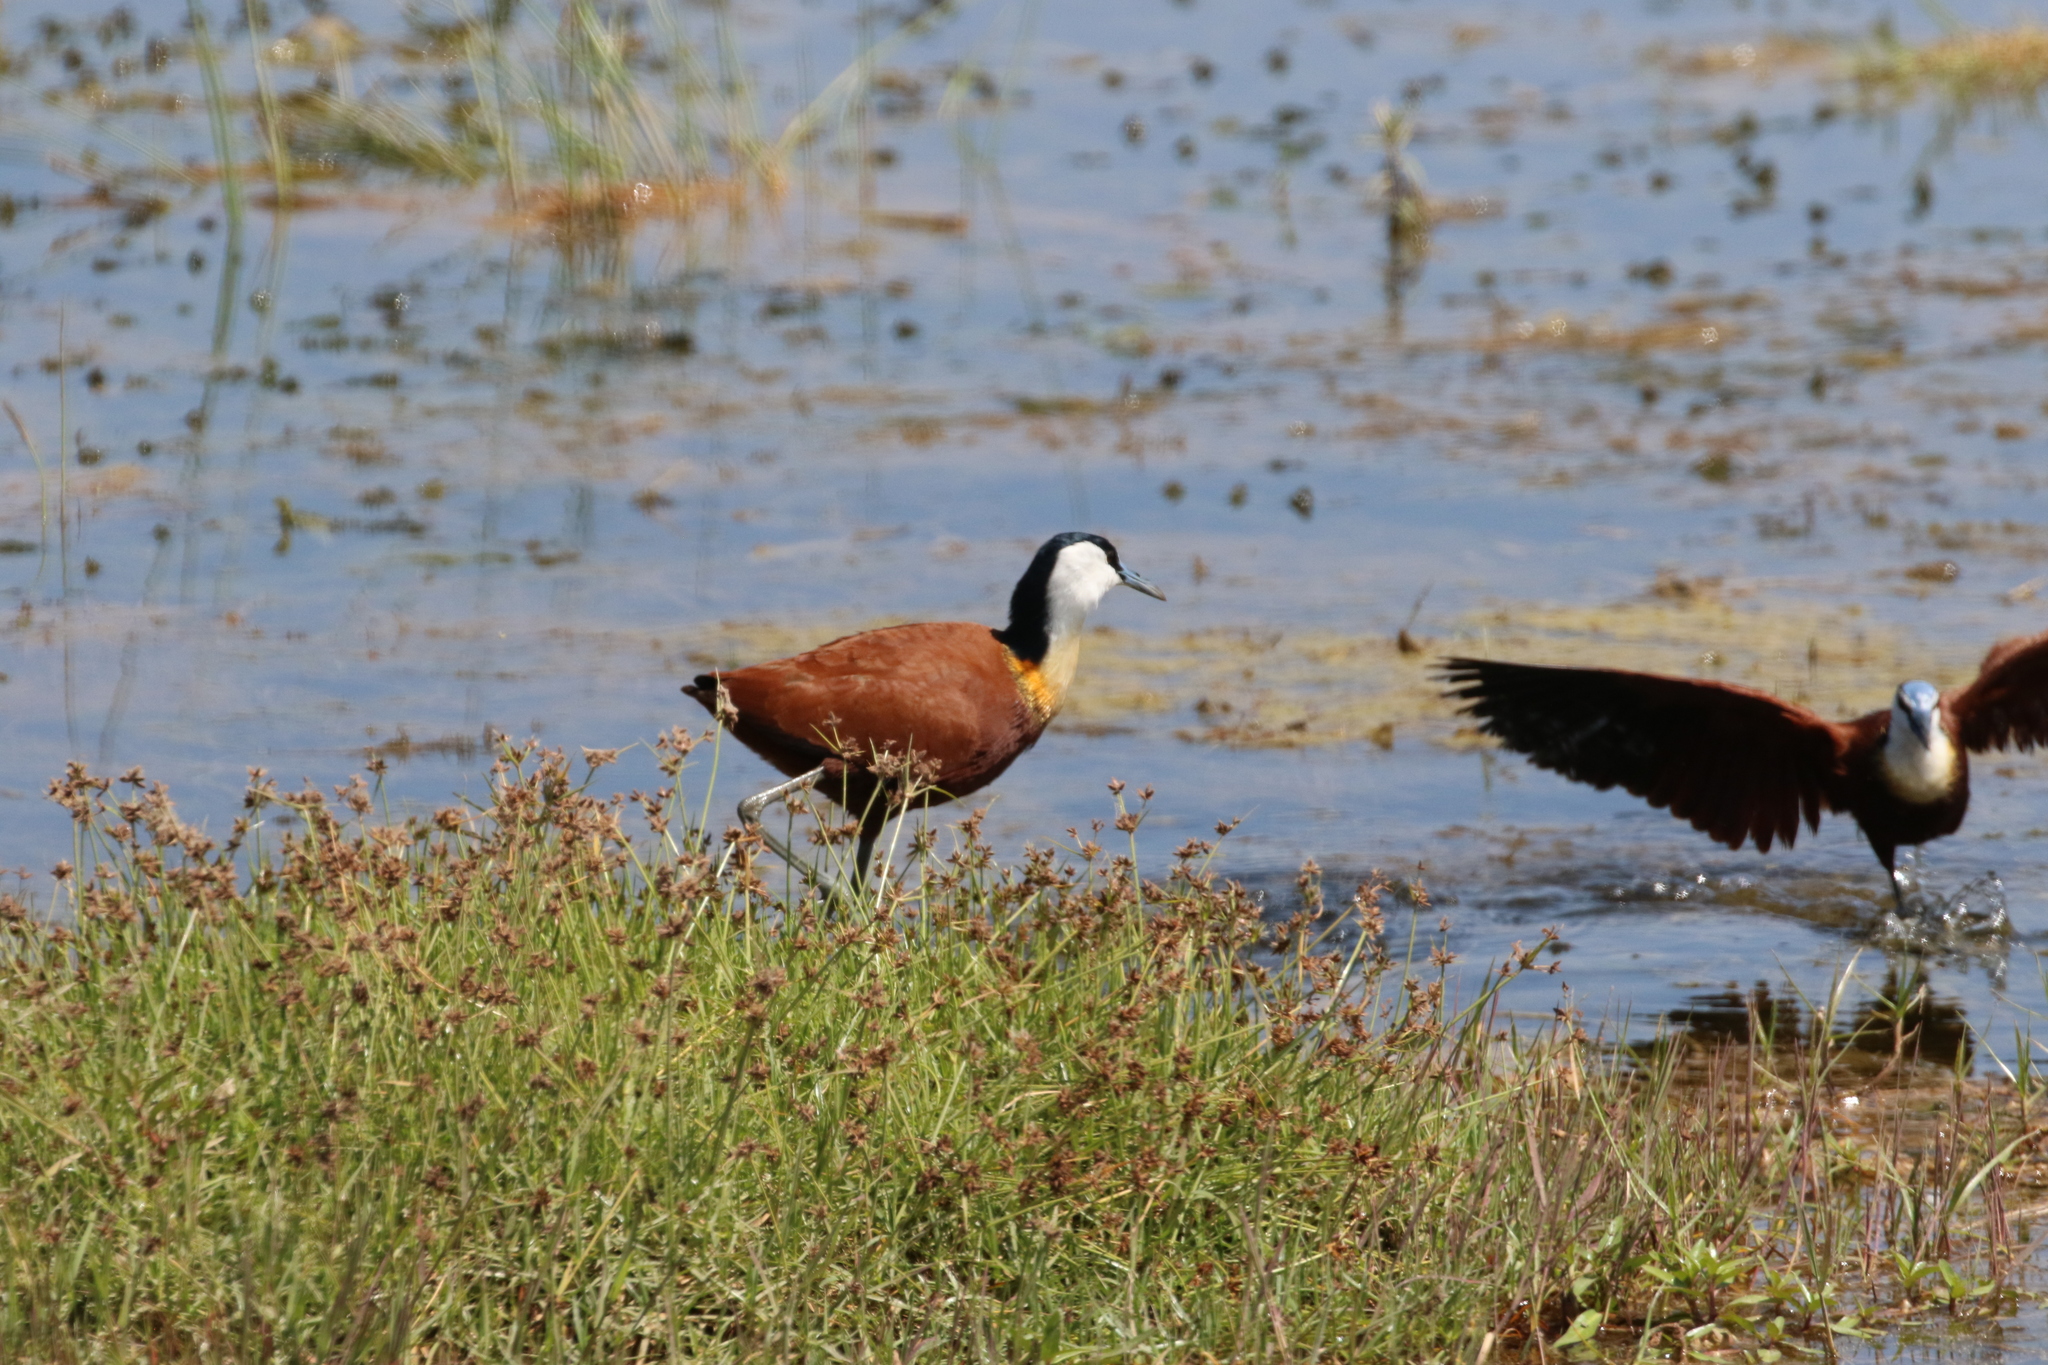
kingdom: Animalia
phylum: Chordata
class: Aves
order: Charadriiformes
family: Jacanidae
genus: Actophilornis
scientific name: Actophilornis africanus
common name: African jacana
